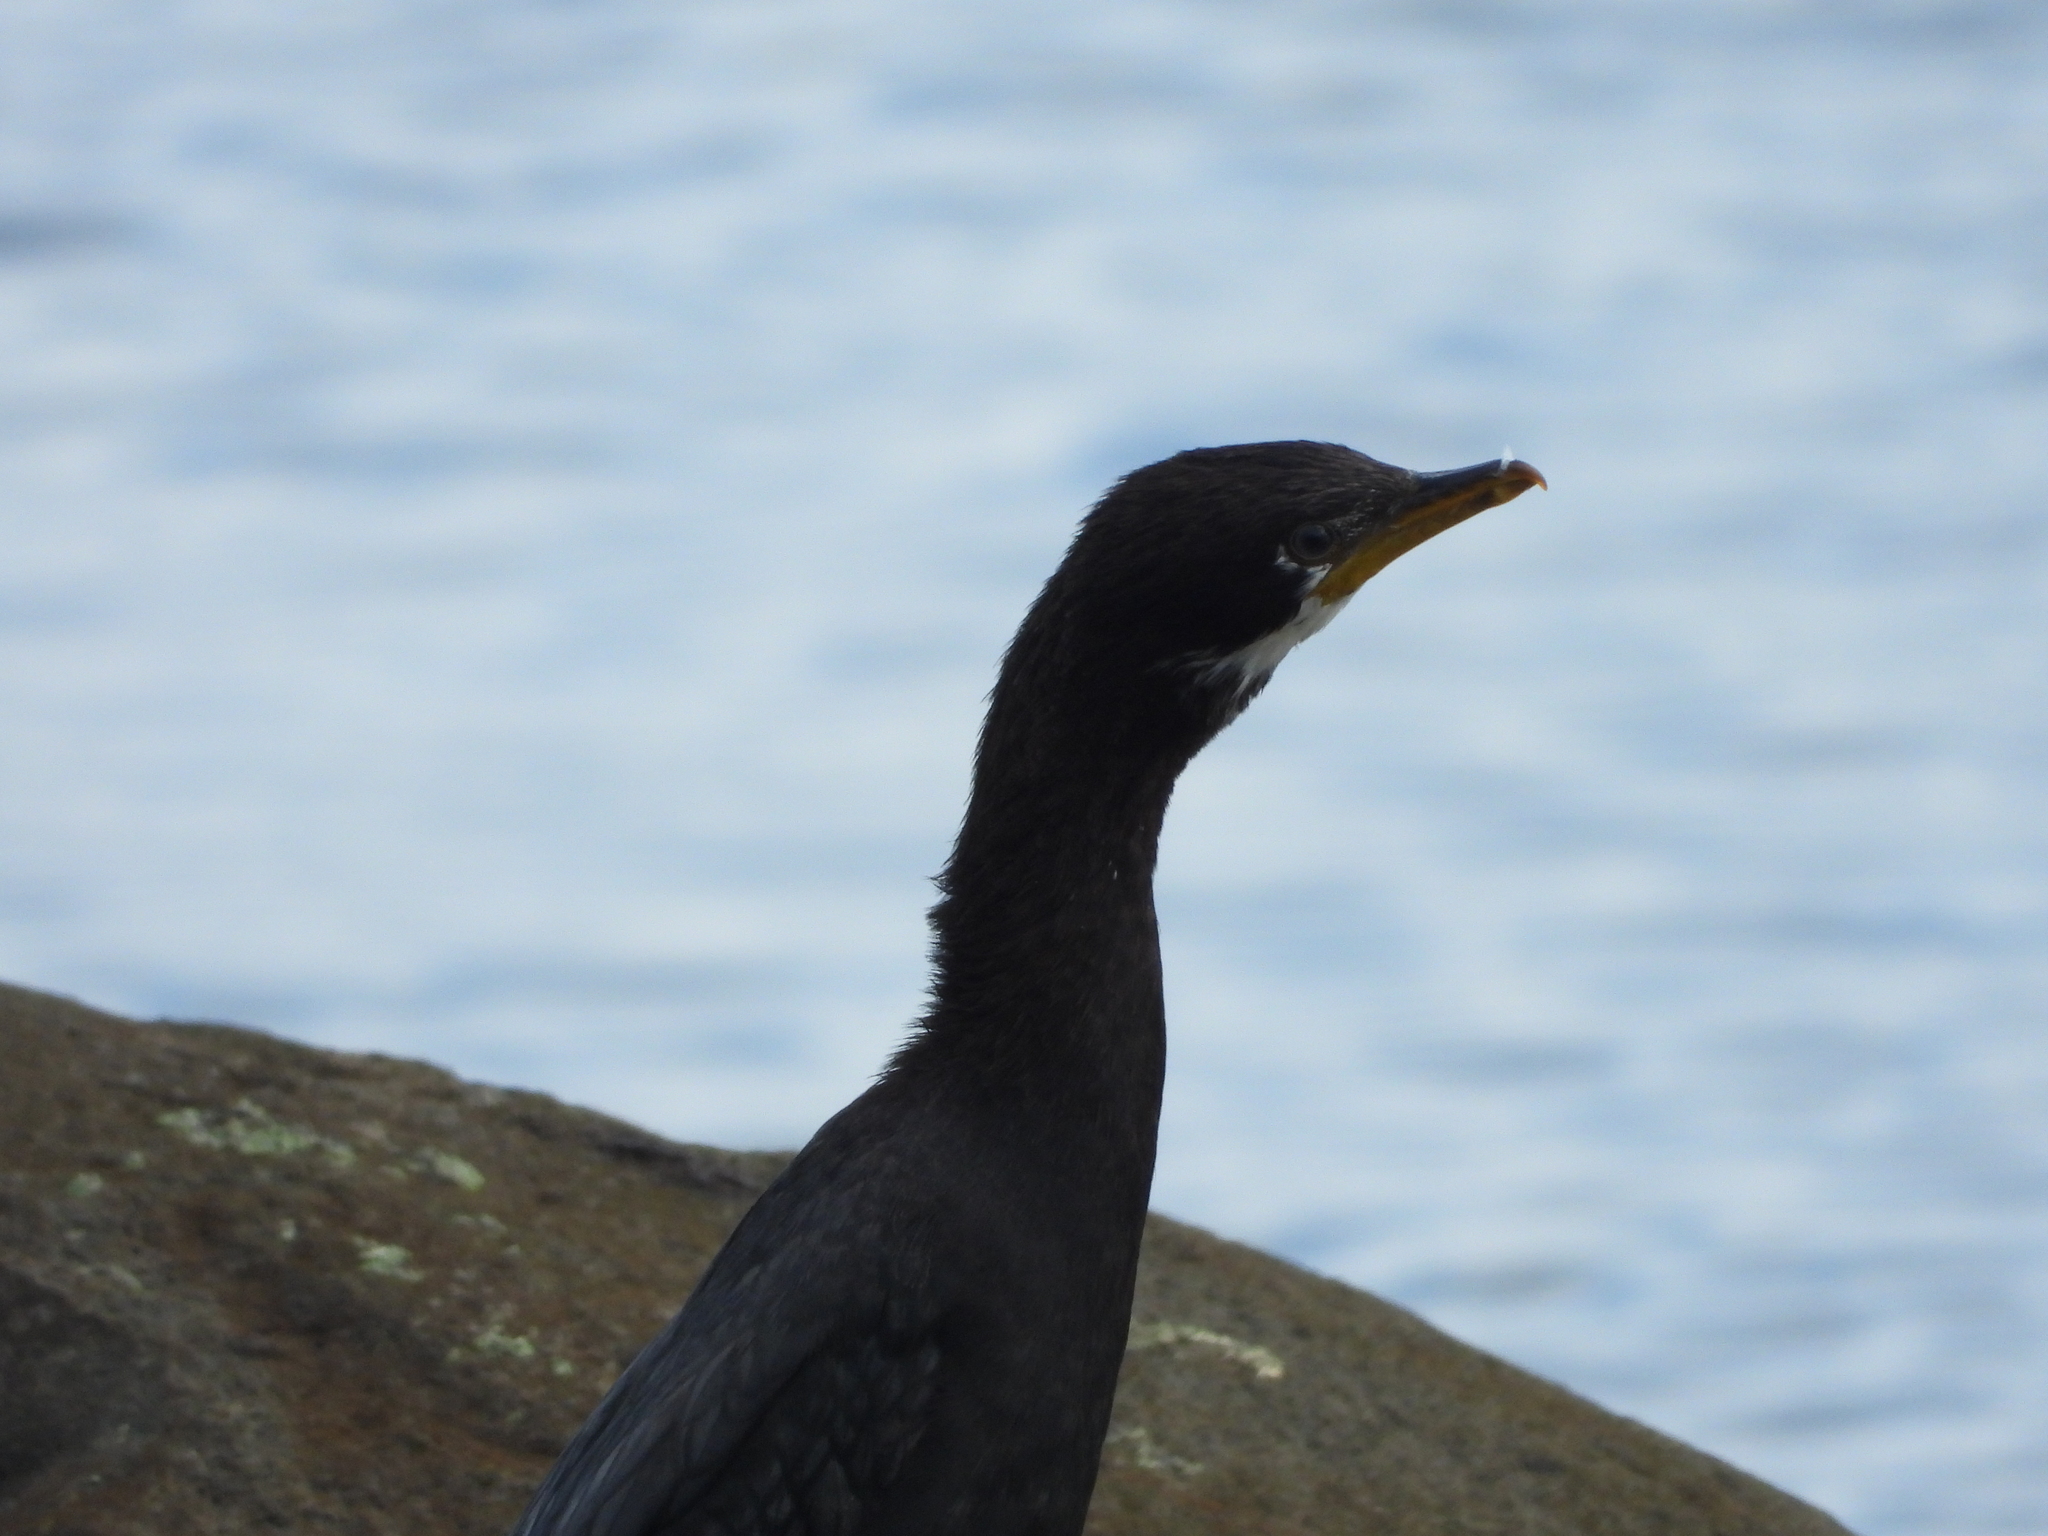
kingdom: Animalia
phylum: Chordata
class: Aves
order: Suliformes
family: Phalacrocoracidae
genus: Microcarbo
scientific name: Microcarbo melanoleucos
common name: Little pied cormorant
